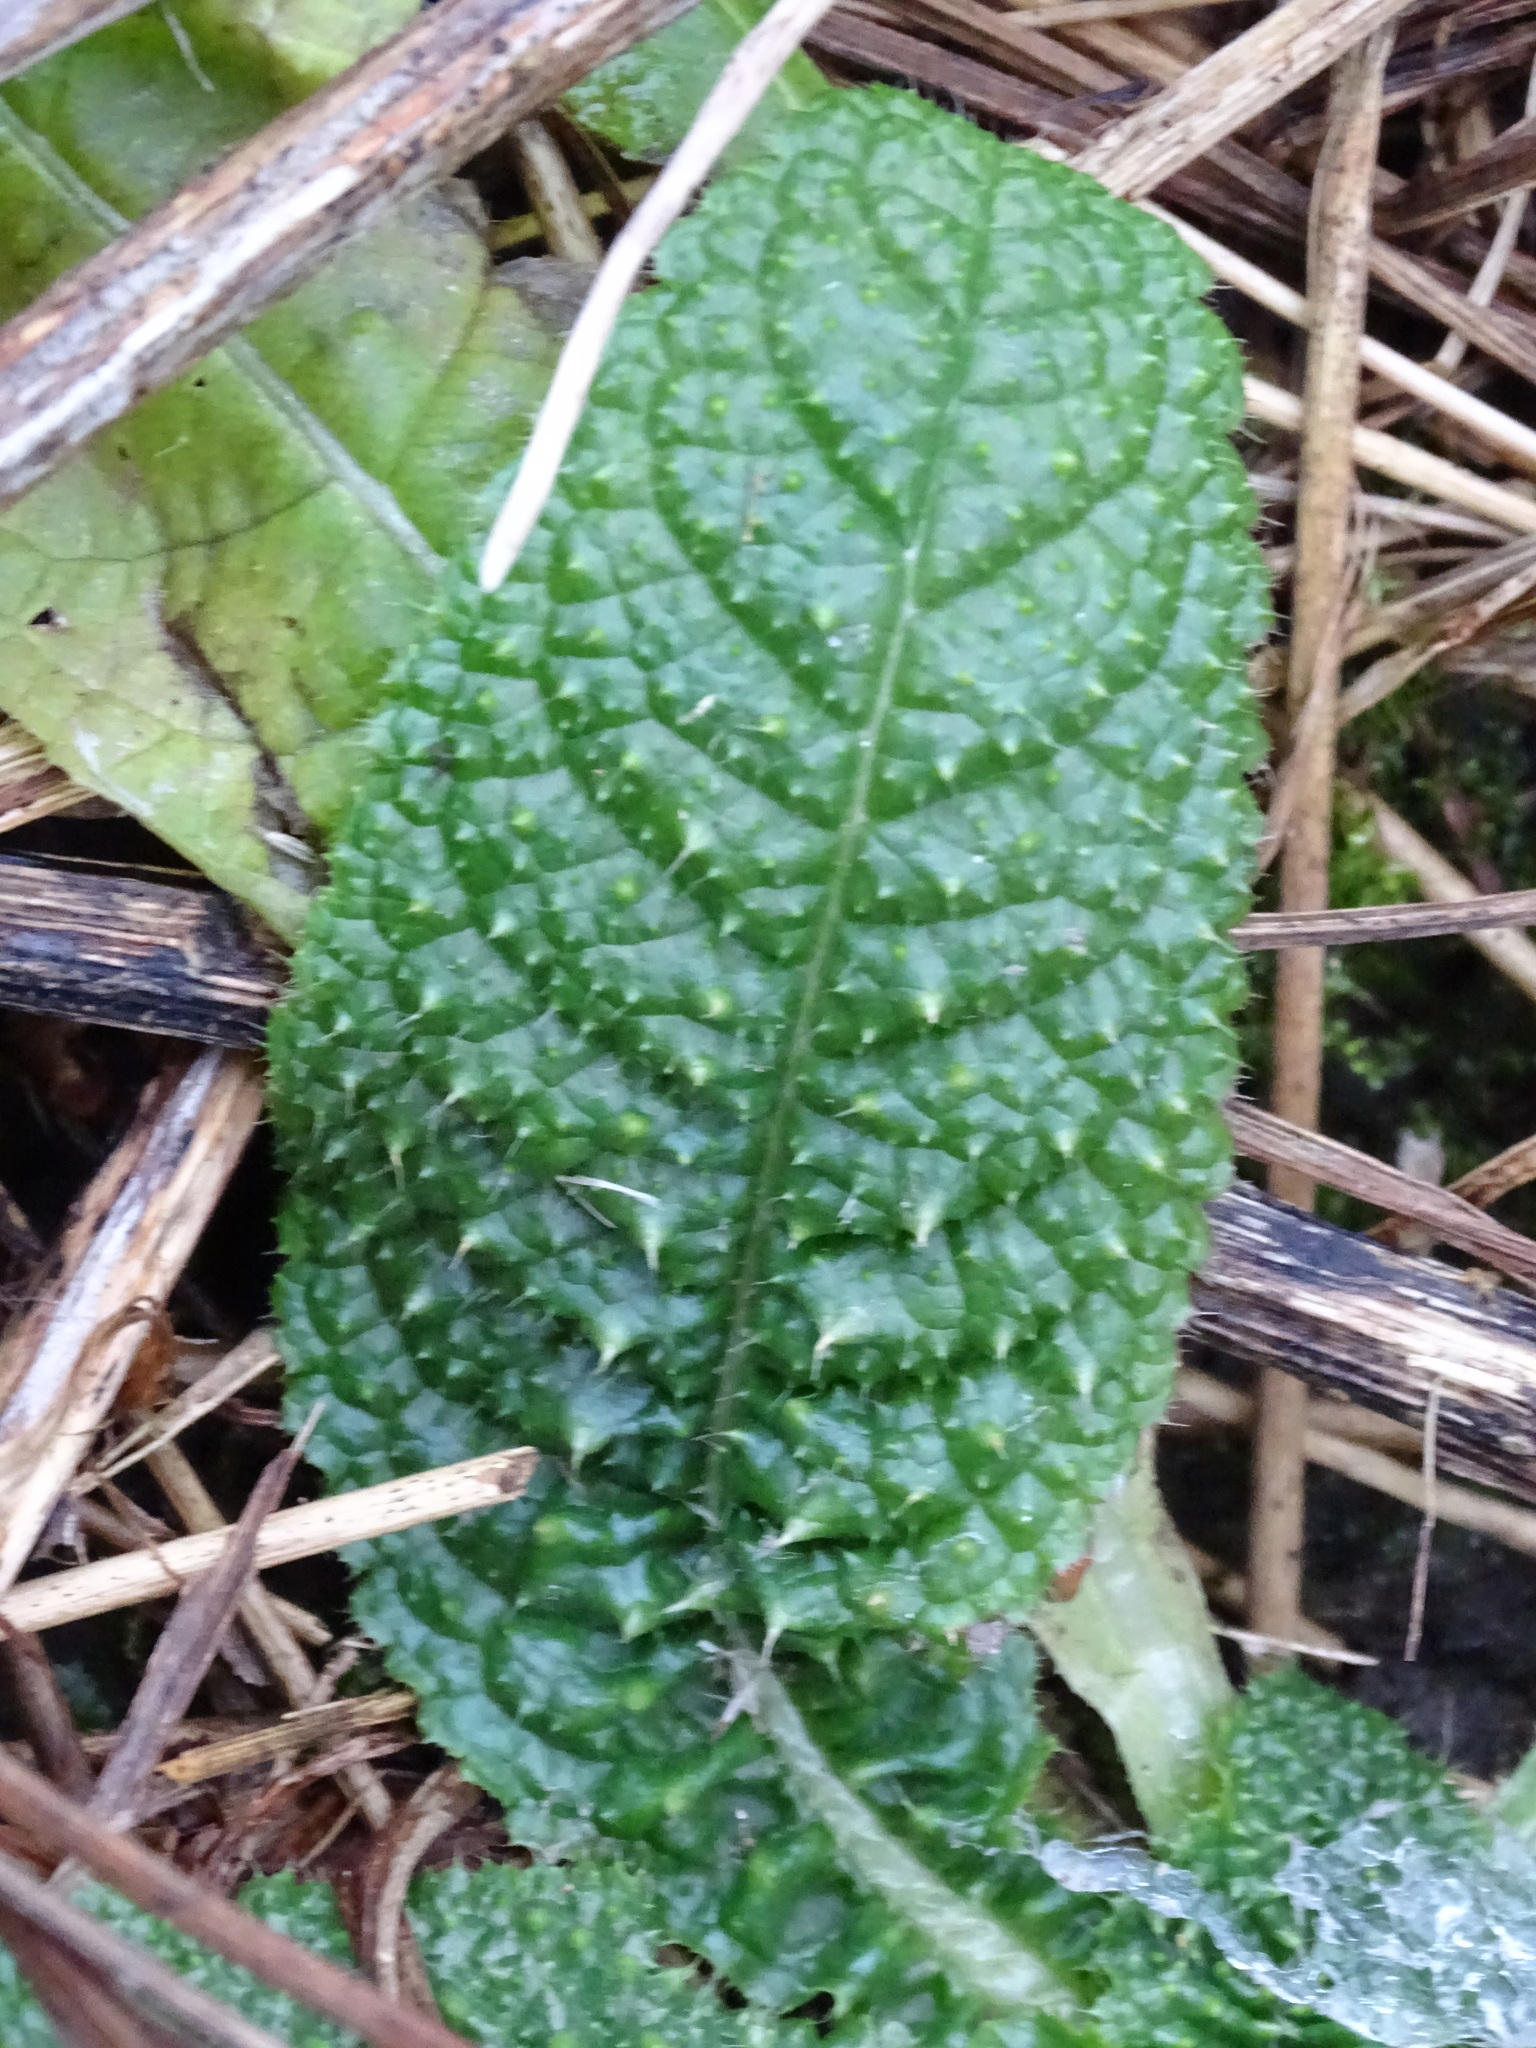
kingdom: Plantae
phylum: Tracheophyta
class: Magnoliopsida
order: Dipsacales
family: Caprifoliaceae
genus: Dipsacus
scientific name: Dipsacus fullonum
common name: Teasel
